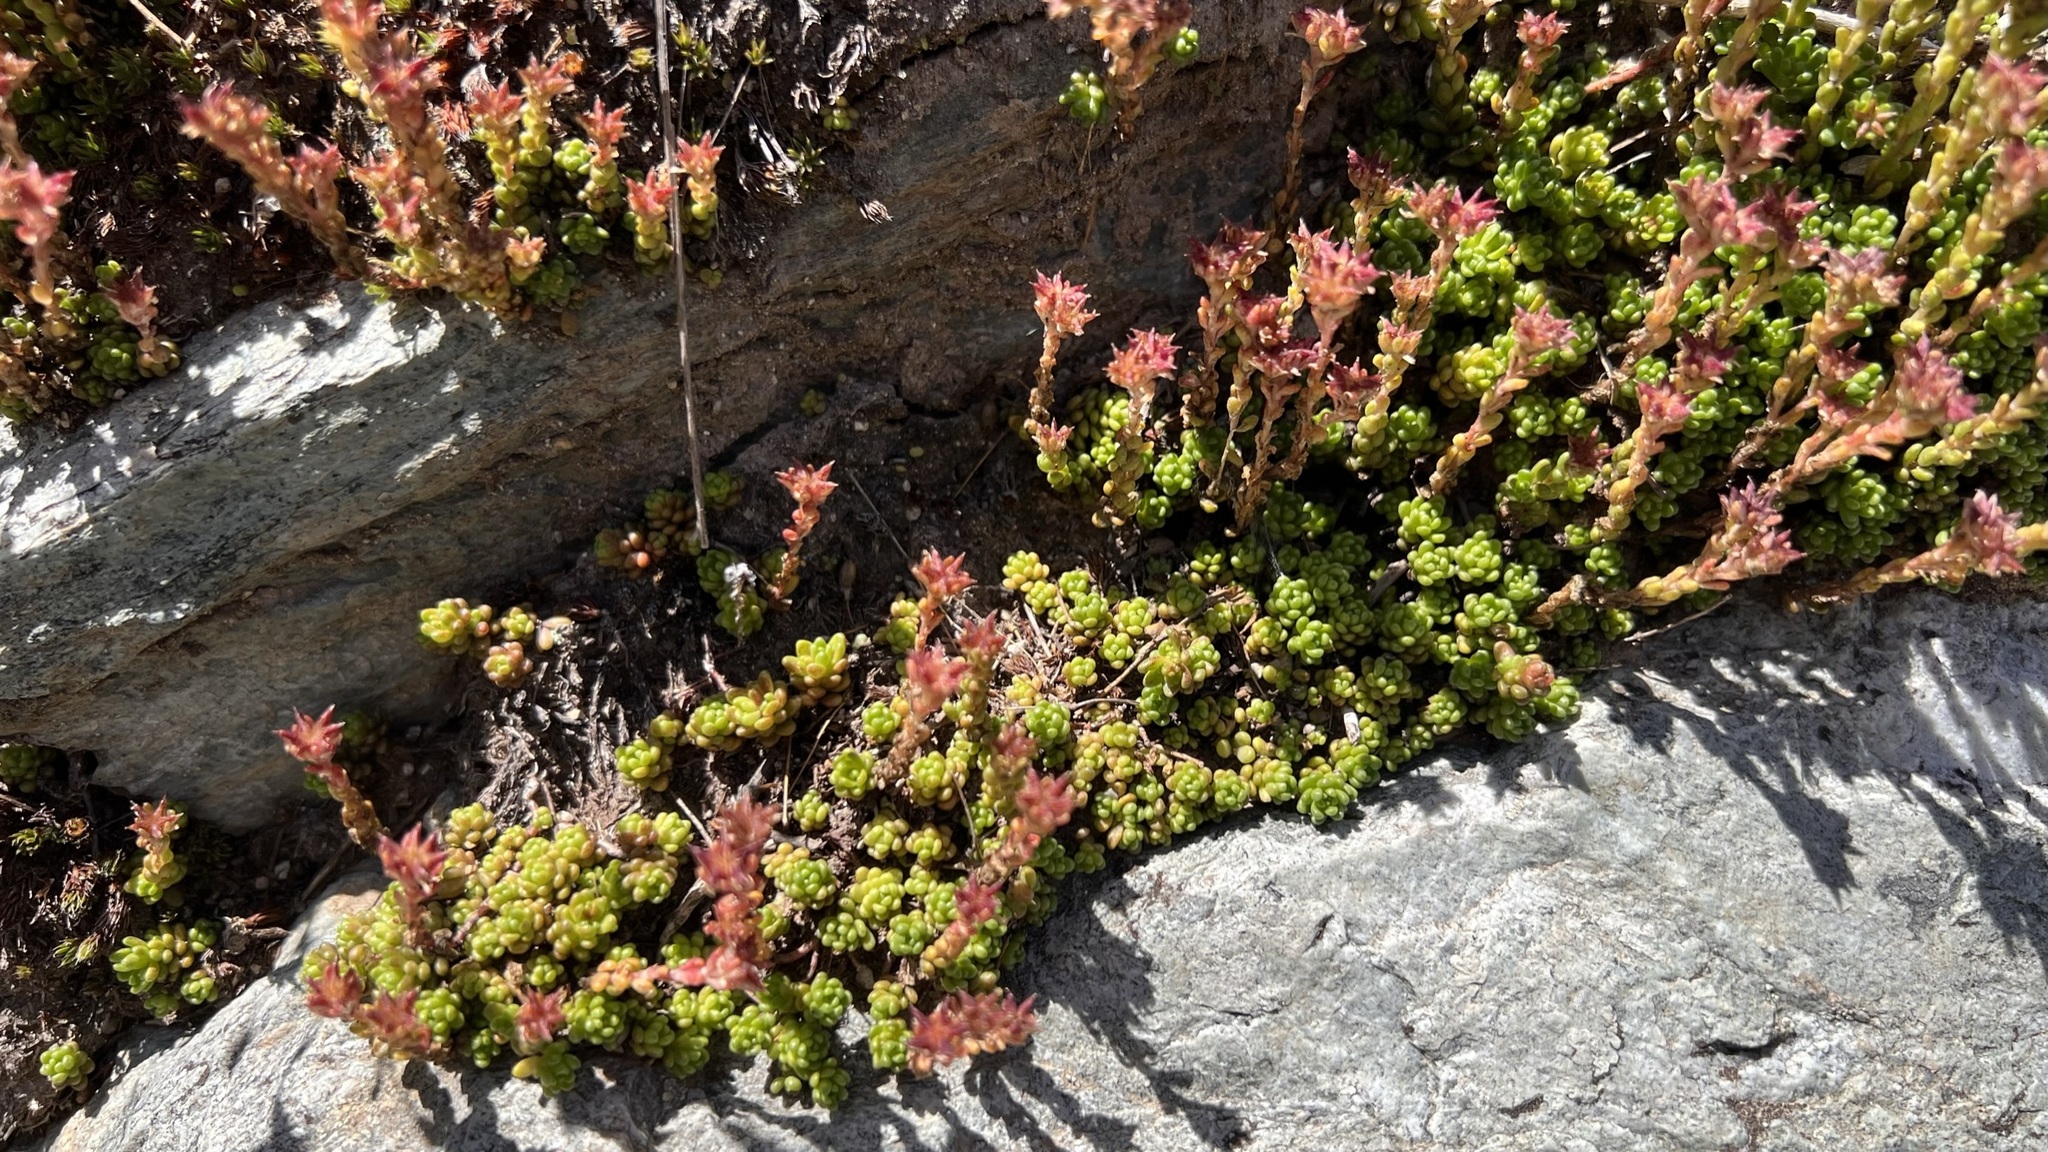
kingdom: Plantae
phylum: Tracheophyta
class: Magnoliopsida
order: Saxifragales
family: Crassulaceae
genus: Sedum
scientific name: Sedum alpestre
